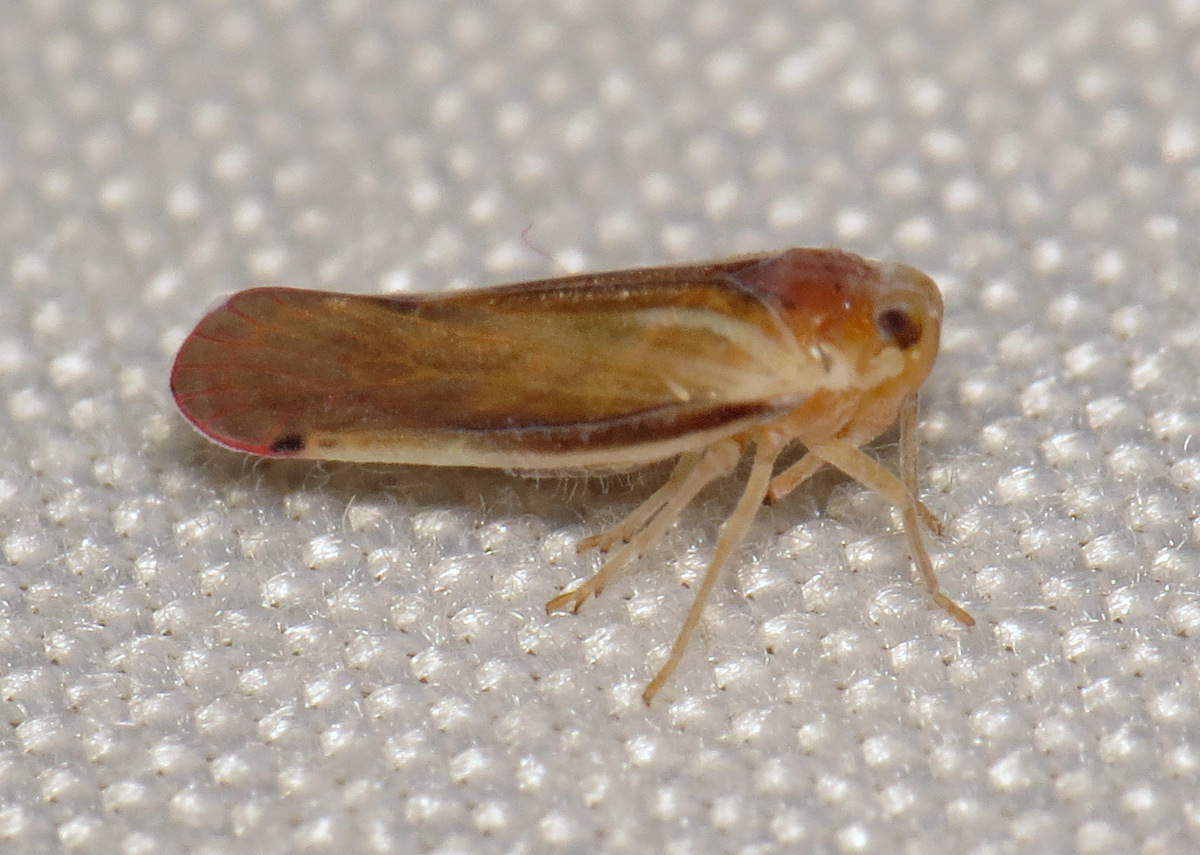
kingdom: Animalia
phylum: Arthropoda
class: Insecta
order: Hemiptera
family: Derbidae
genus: Omolicna
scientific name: Omolicna uhleri
